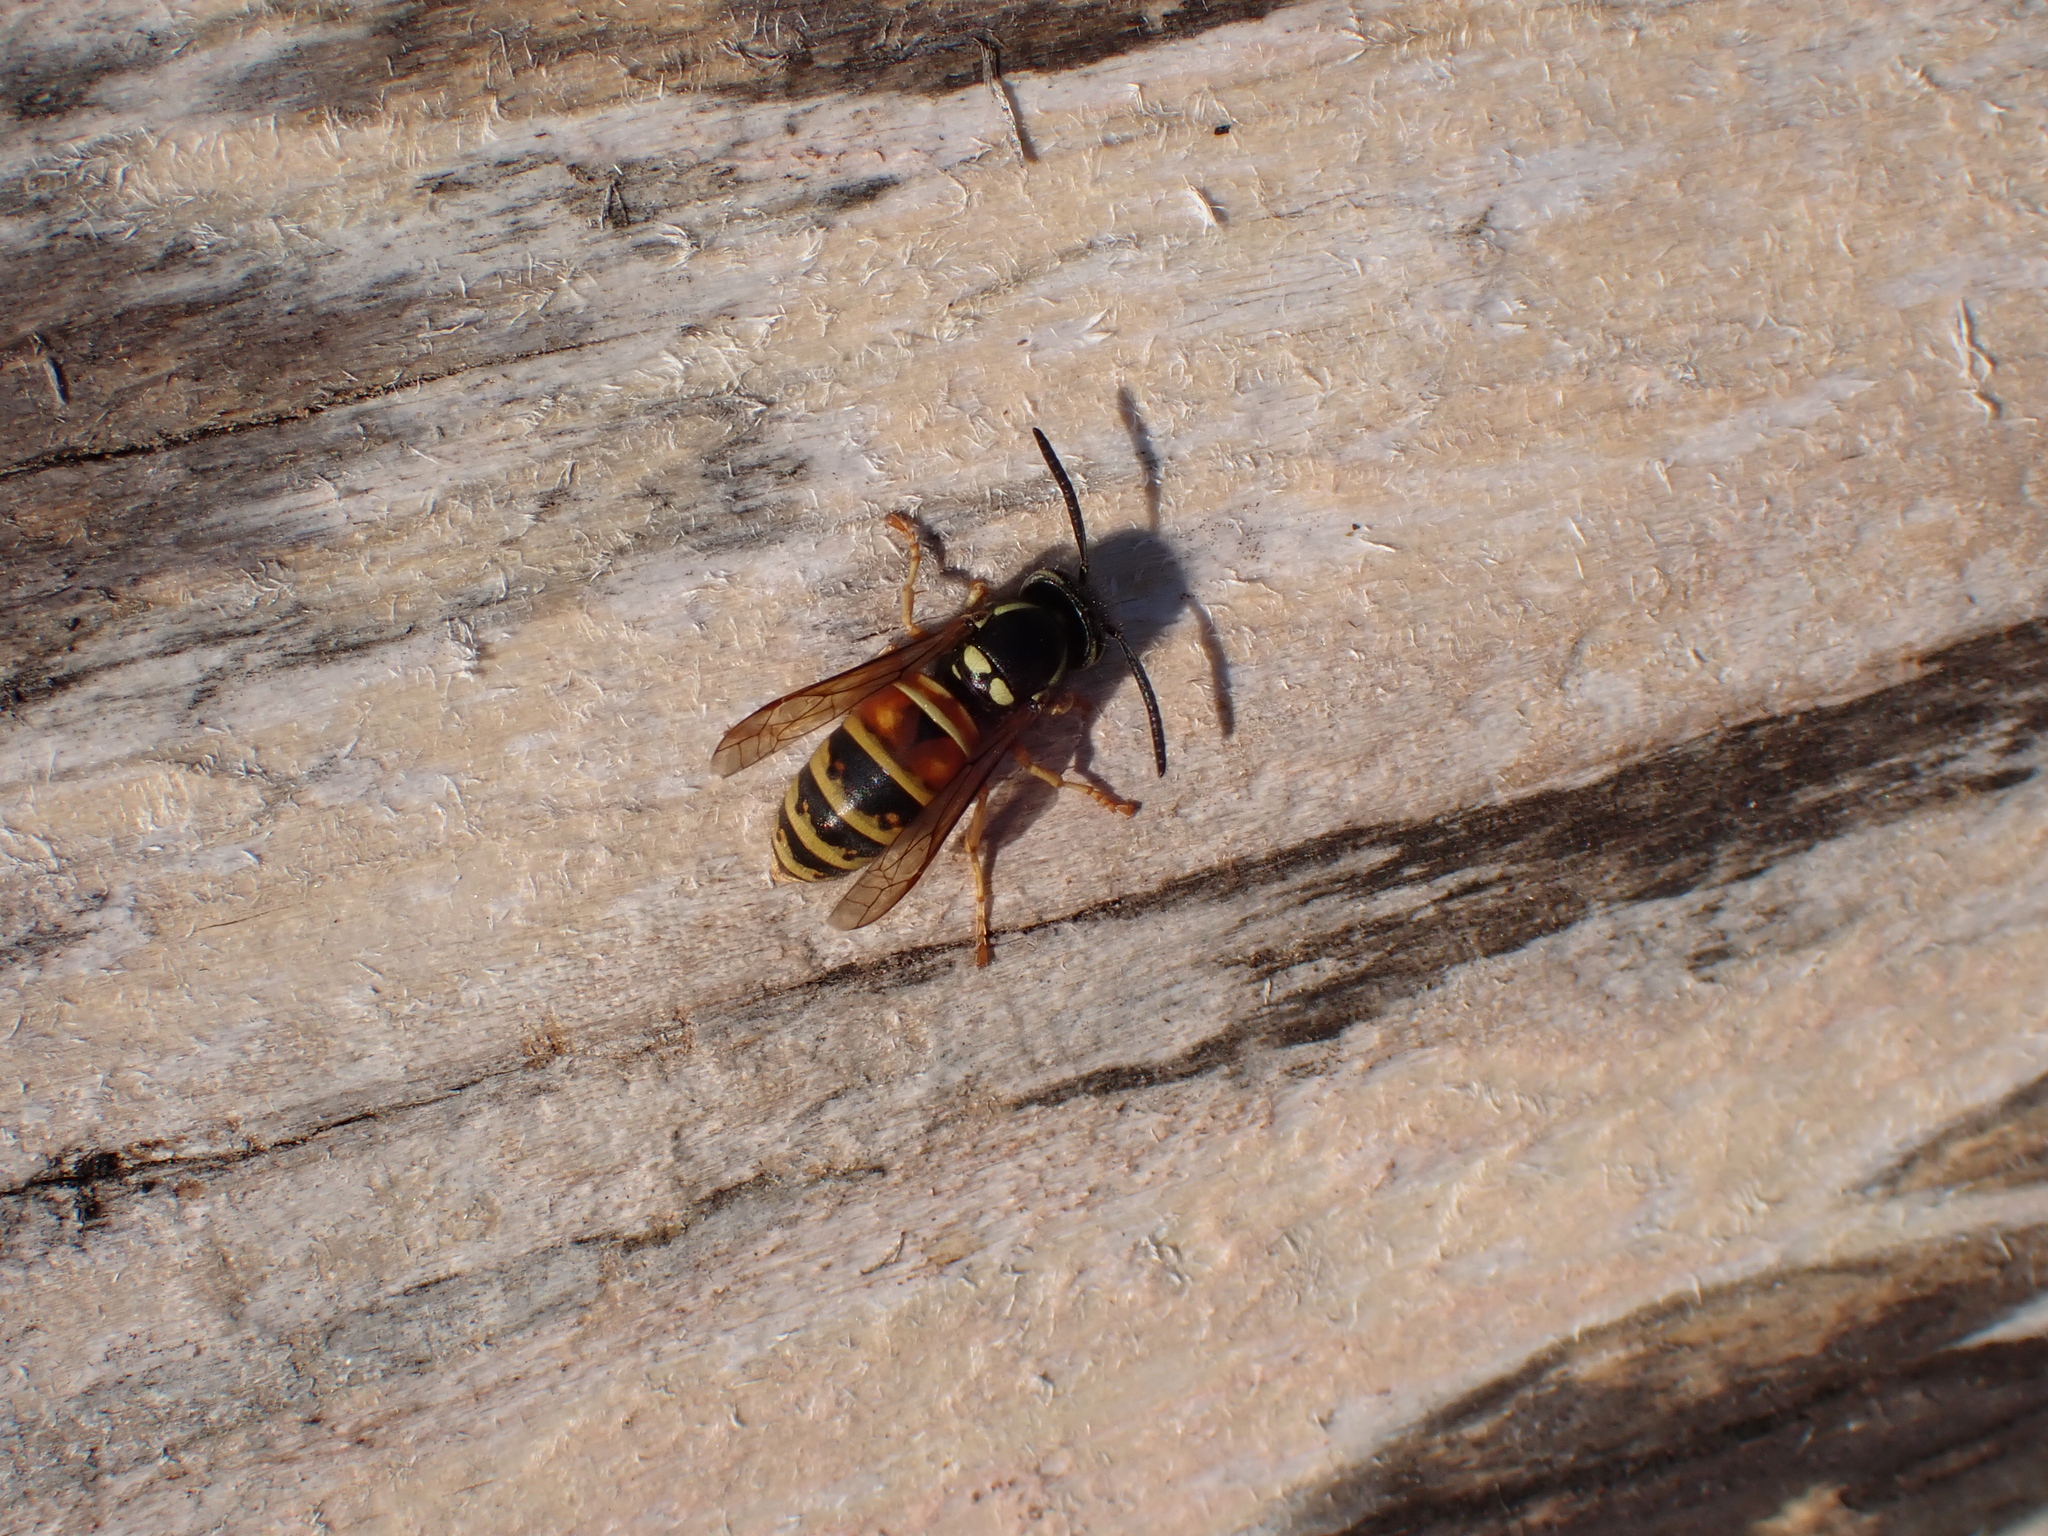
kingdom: Animalia
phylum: Arthropoda
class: Insecta
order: Hymenoptera
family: Vespidae
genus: Vespula
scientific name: Vespula rufa
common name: Red wasp
